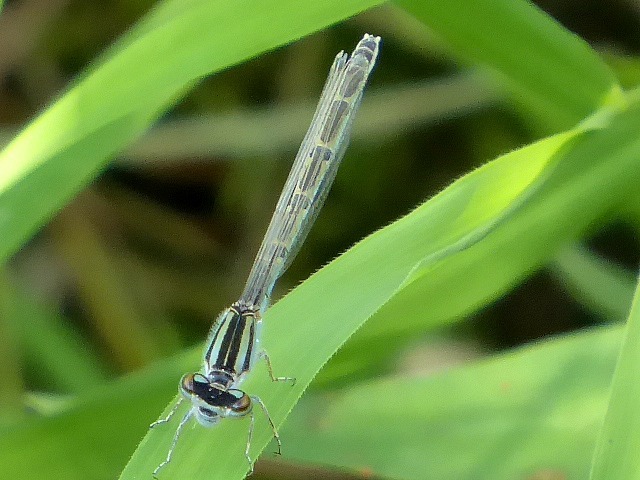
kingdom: Animalia
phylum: Arthropoda
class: Insecta
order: Odonata
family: Coenagrionidae
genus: Enallagma
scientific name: Enallagma
